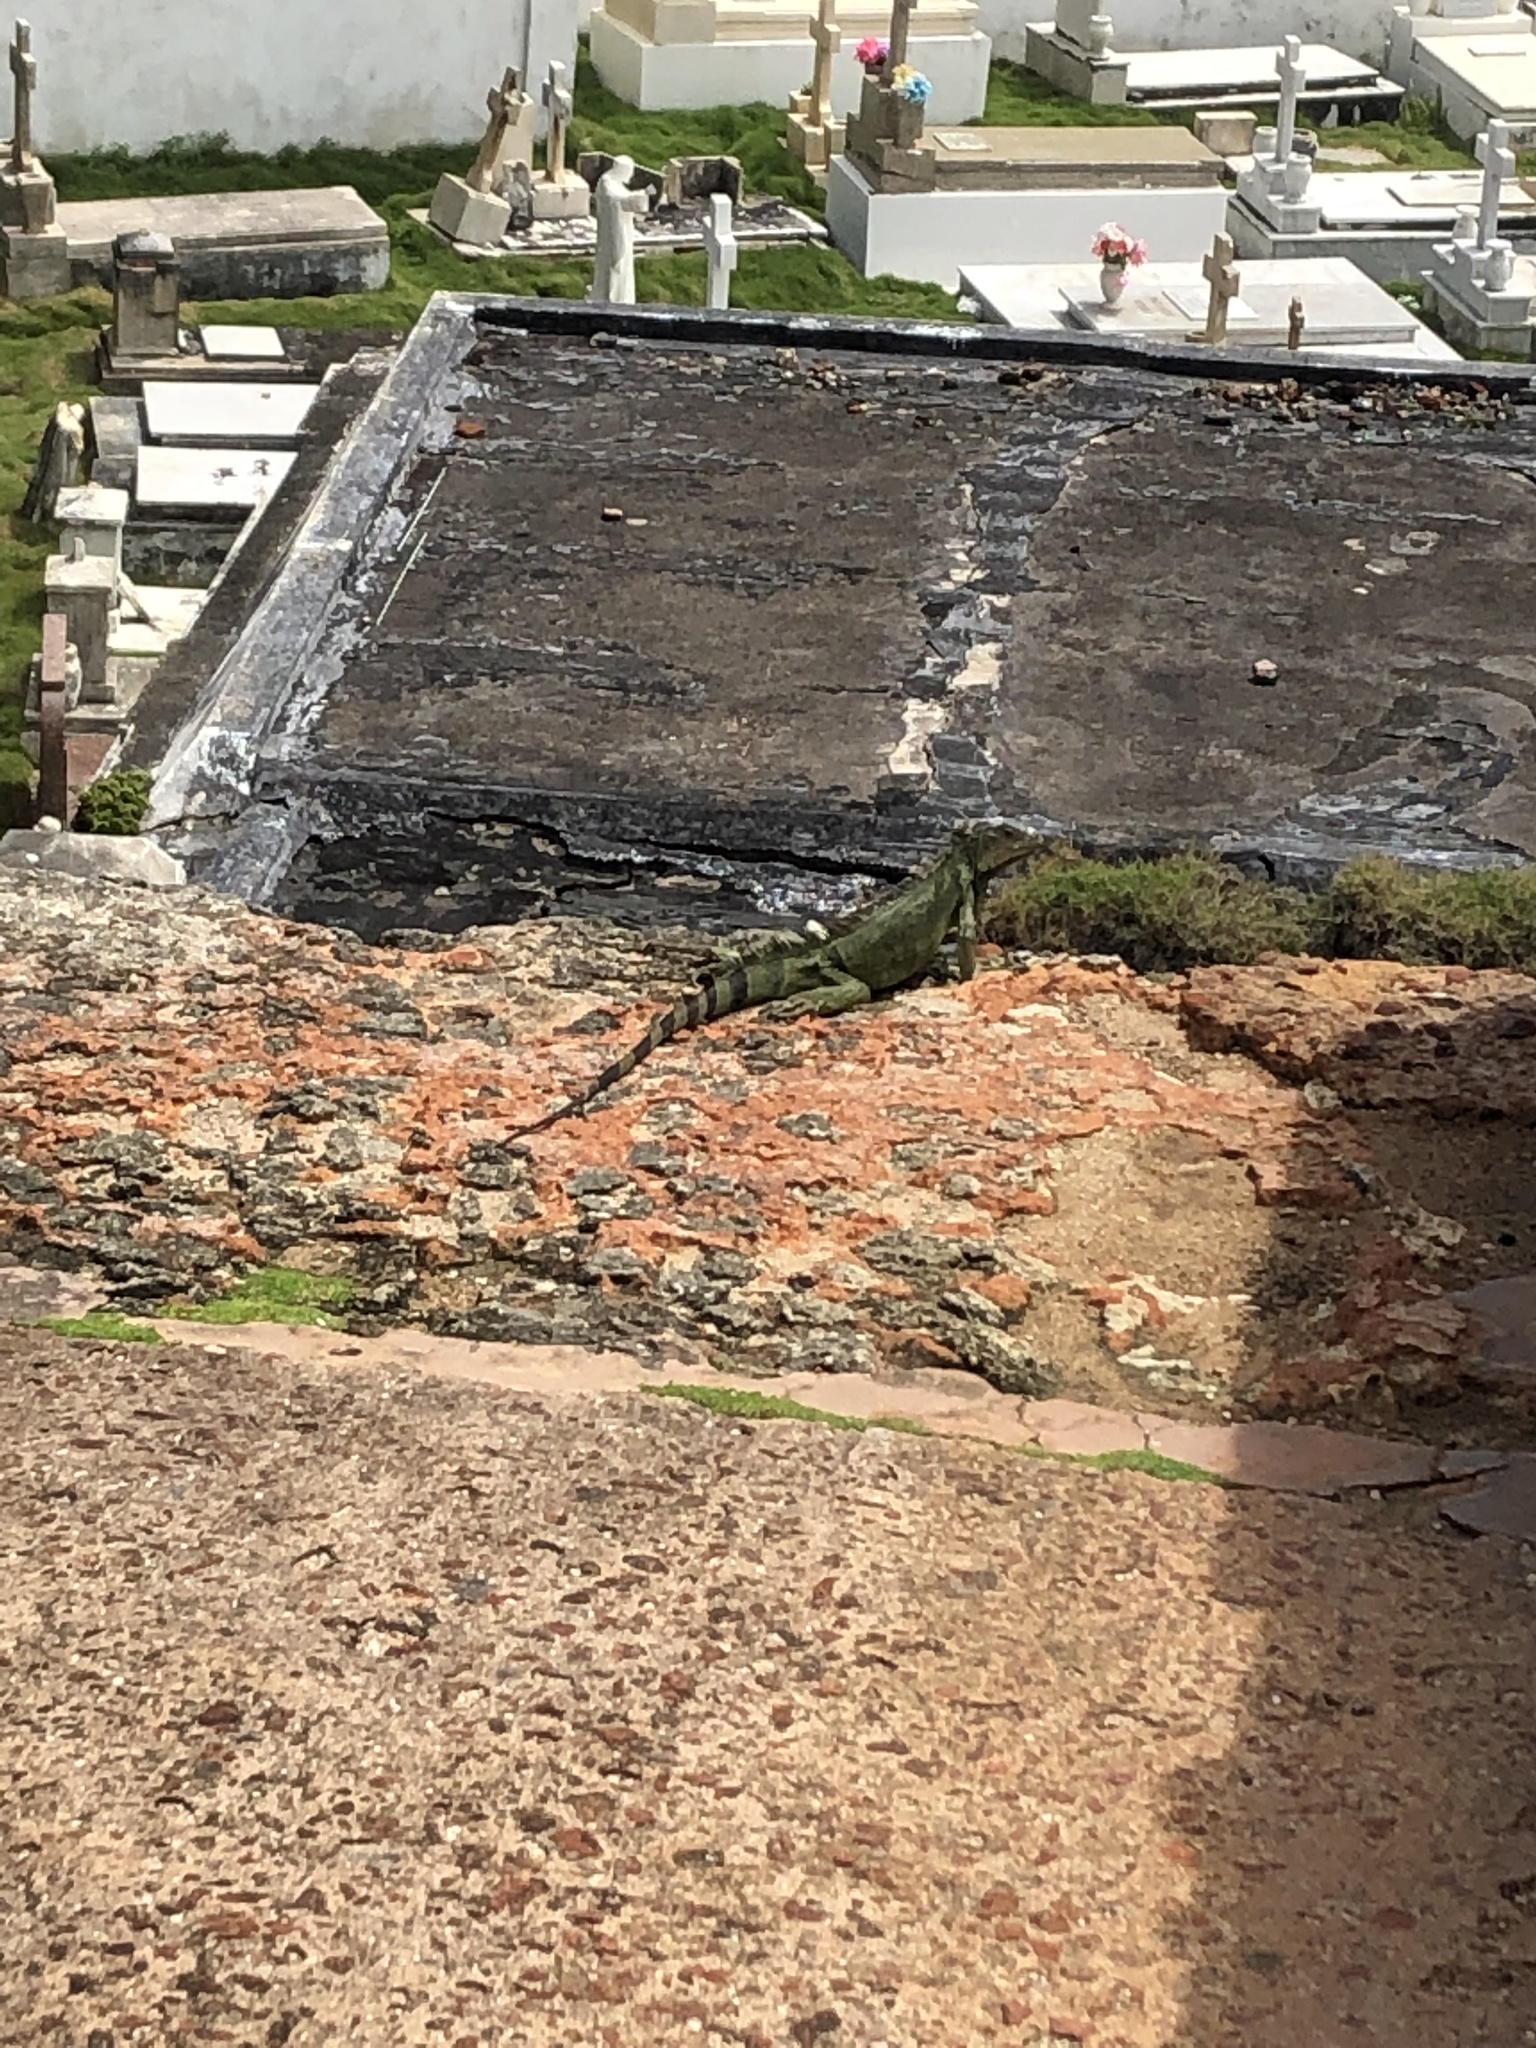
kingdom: Animalia
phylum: Chordata
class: Squamata
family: Iguanidae
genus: Iguana
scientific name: Iguana iguana
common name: Green iguana
